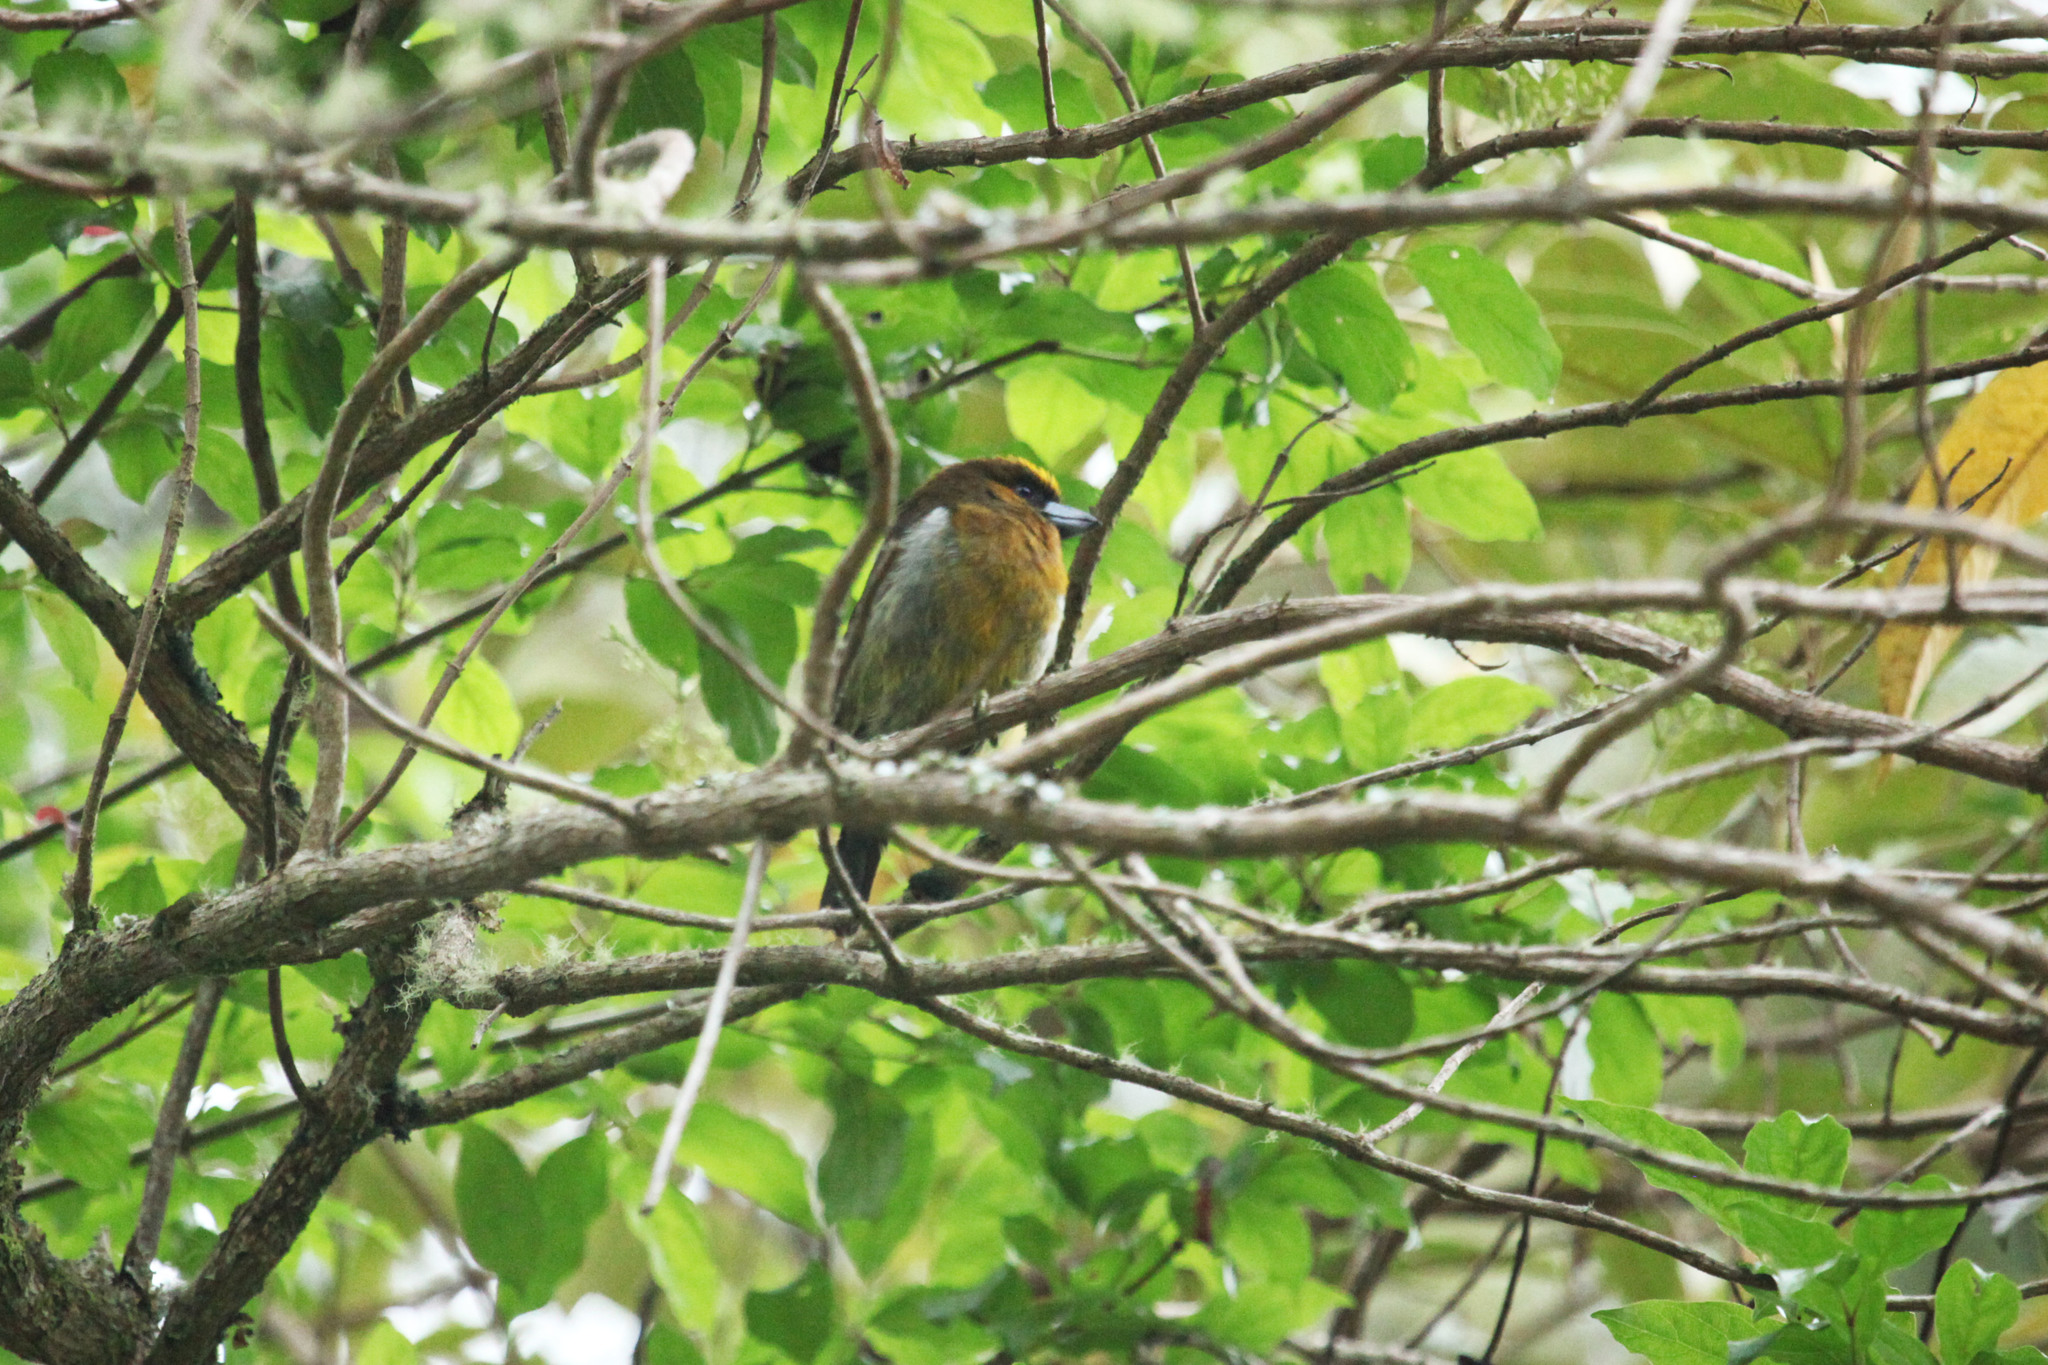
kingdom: Animalia
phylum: Chordata
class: Aves
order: Piciformes
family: Semnornithidae
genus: Semnornis
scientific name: Semnornis frantzii
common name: Prong-billed barbet
